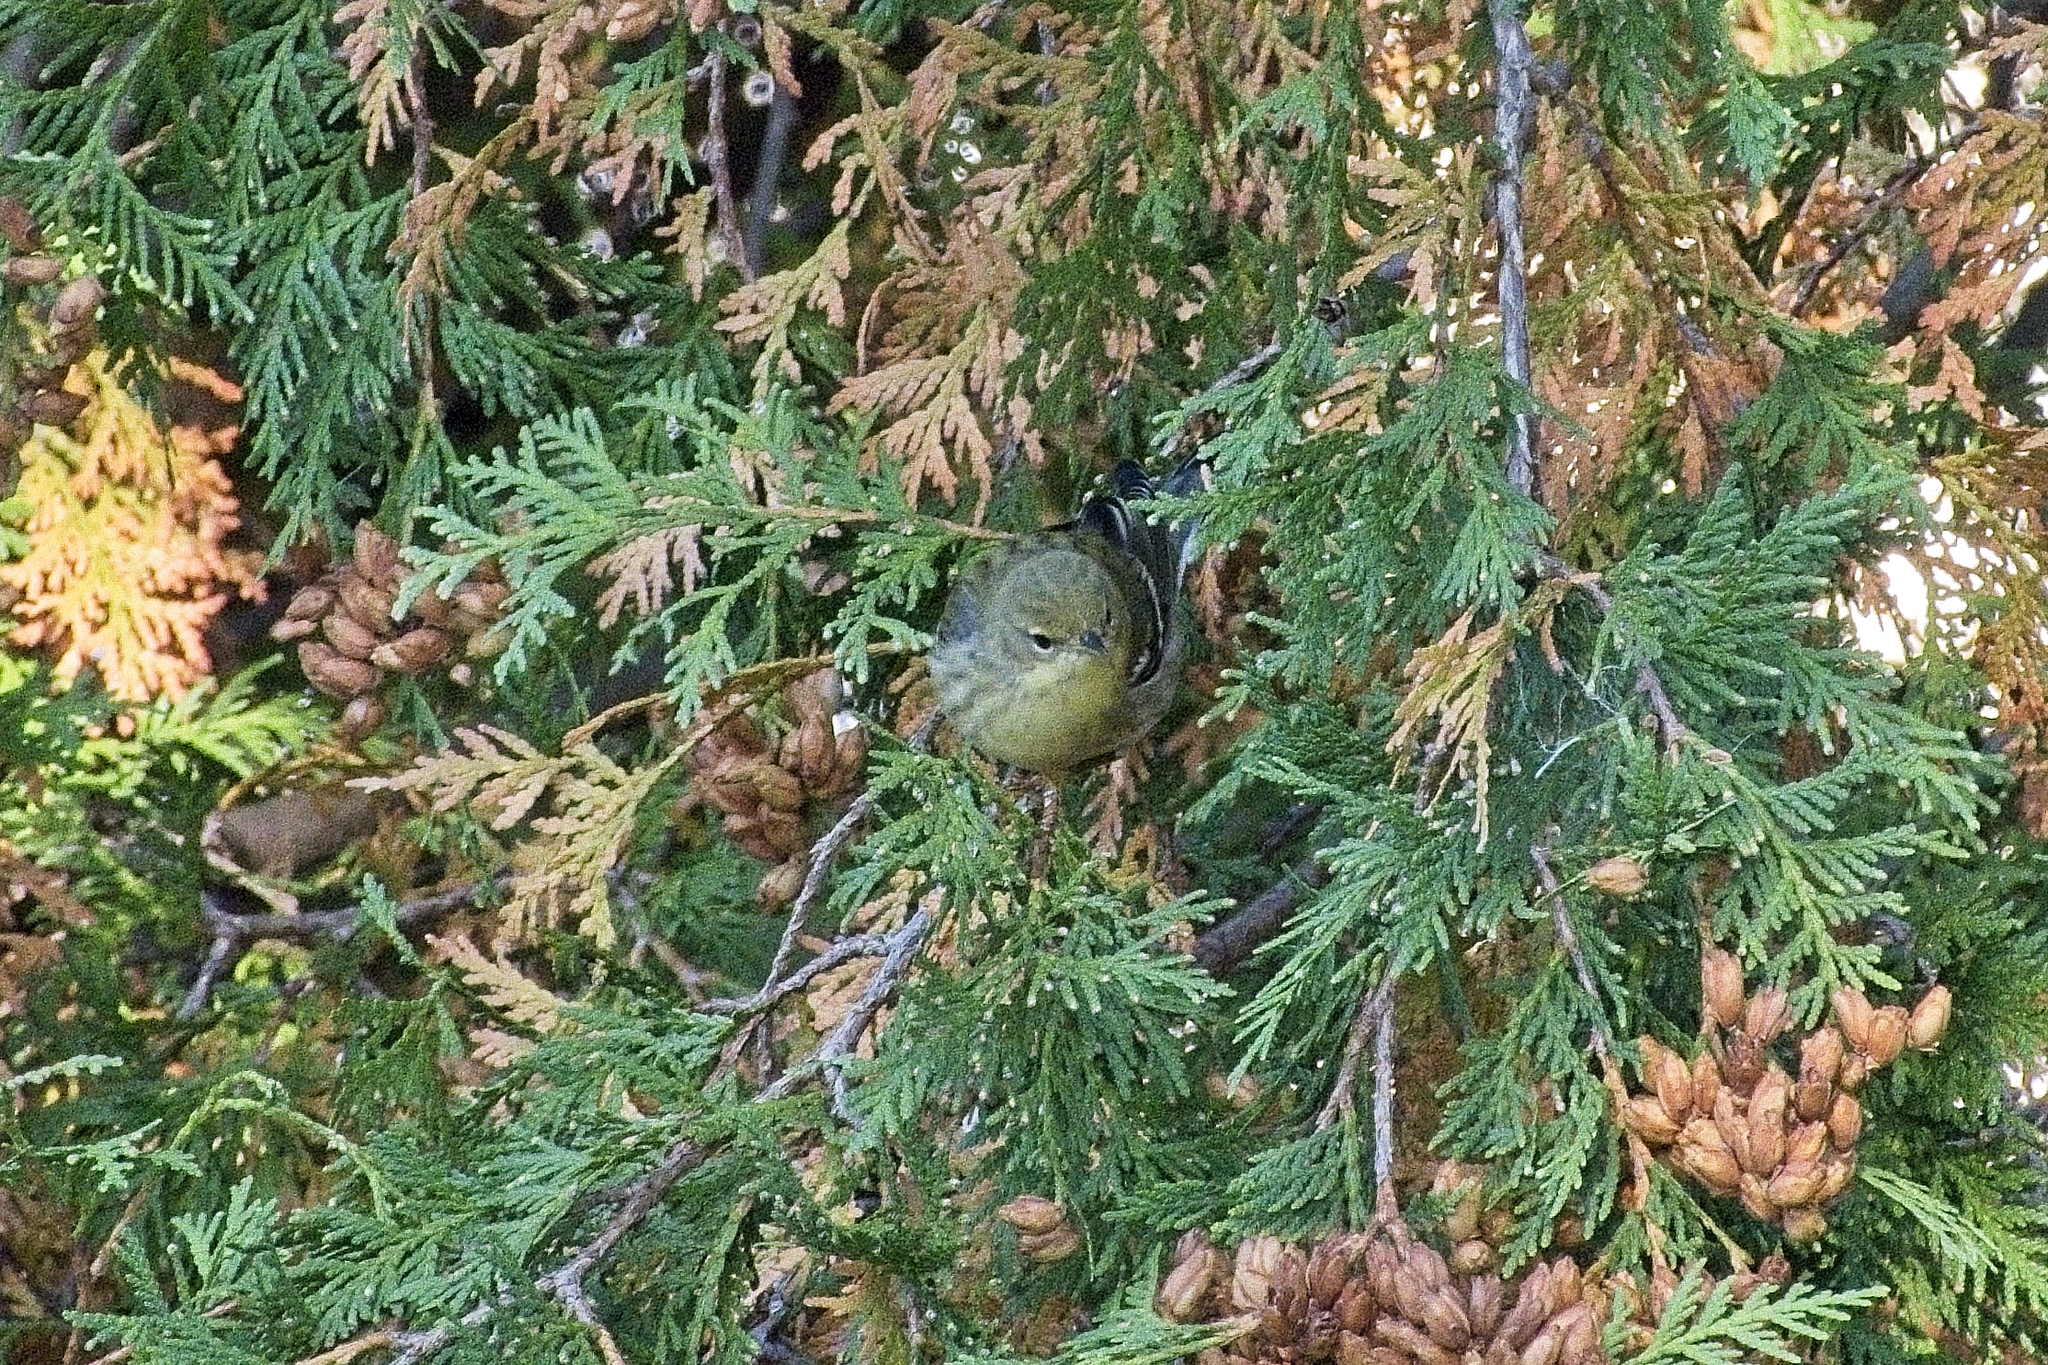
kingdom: Animalia
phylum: Chordata
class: Aves
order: Passeriformes
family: Parulidae
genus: Setophaga
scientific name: Setophaga striata
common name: Blackpoll warbler
